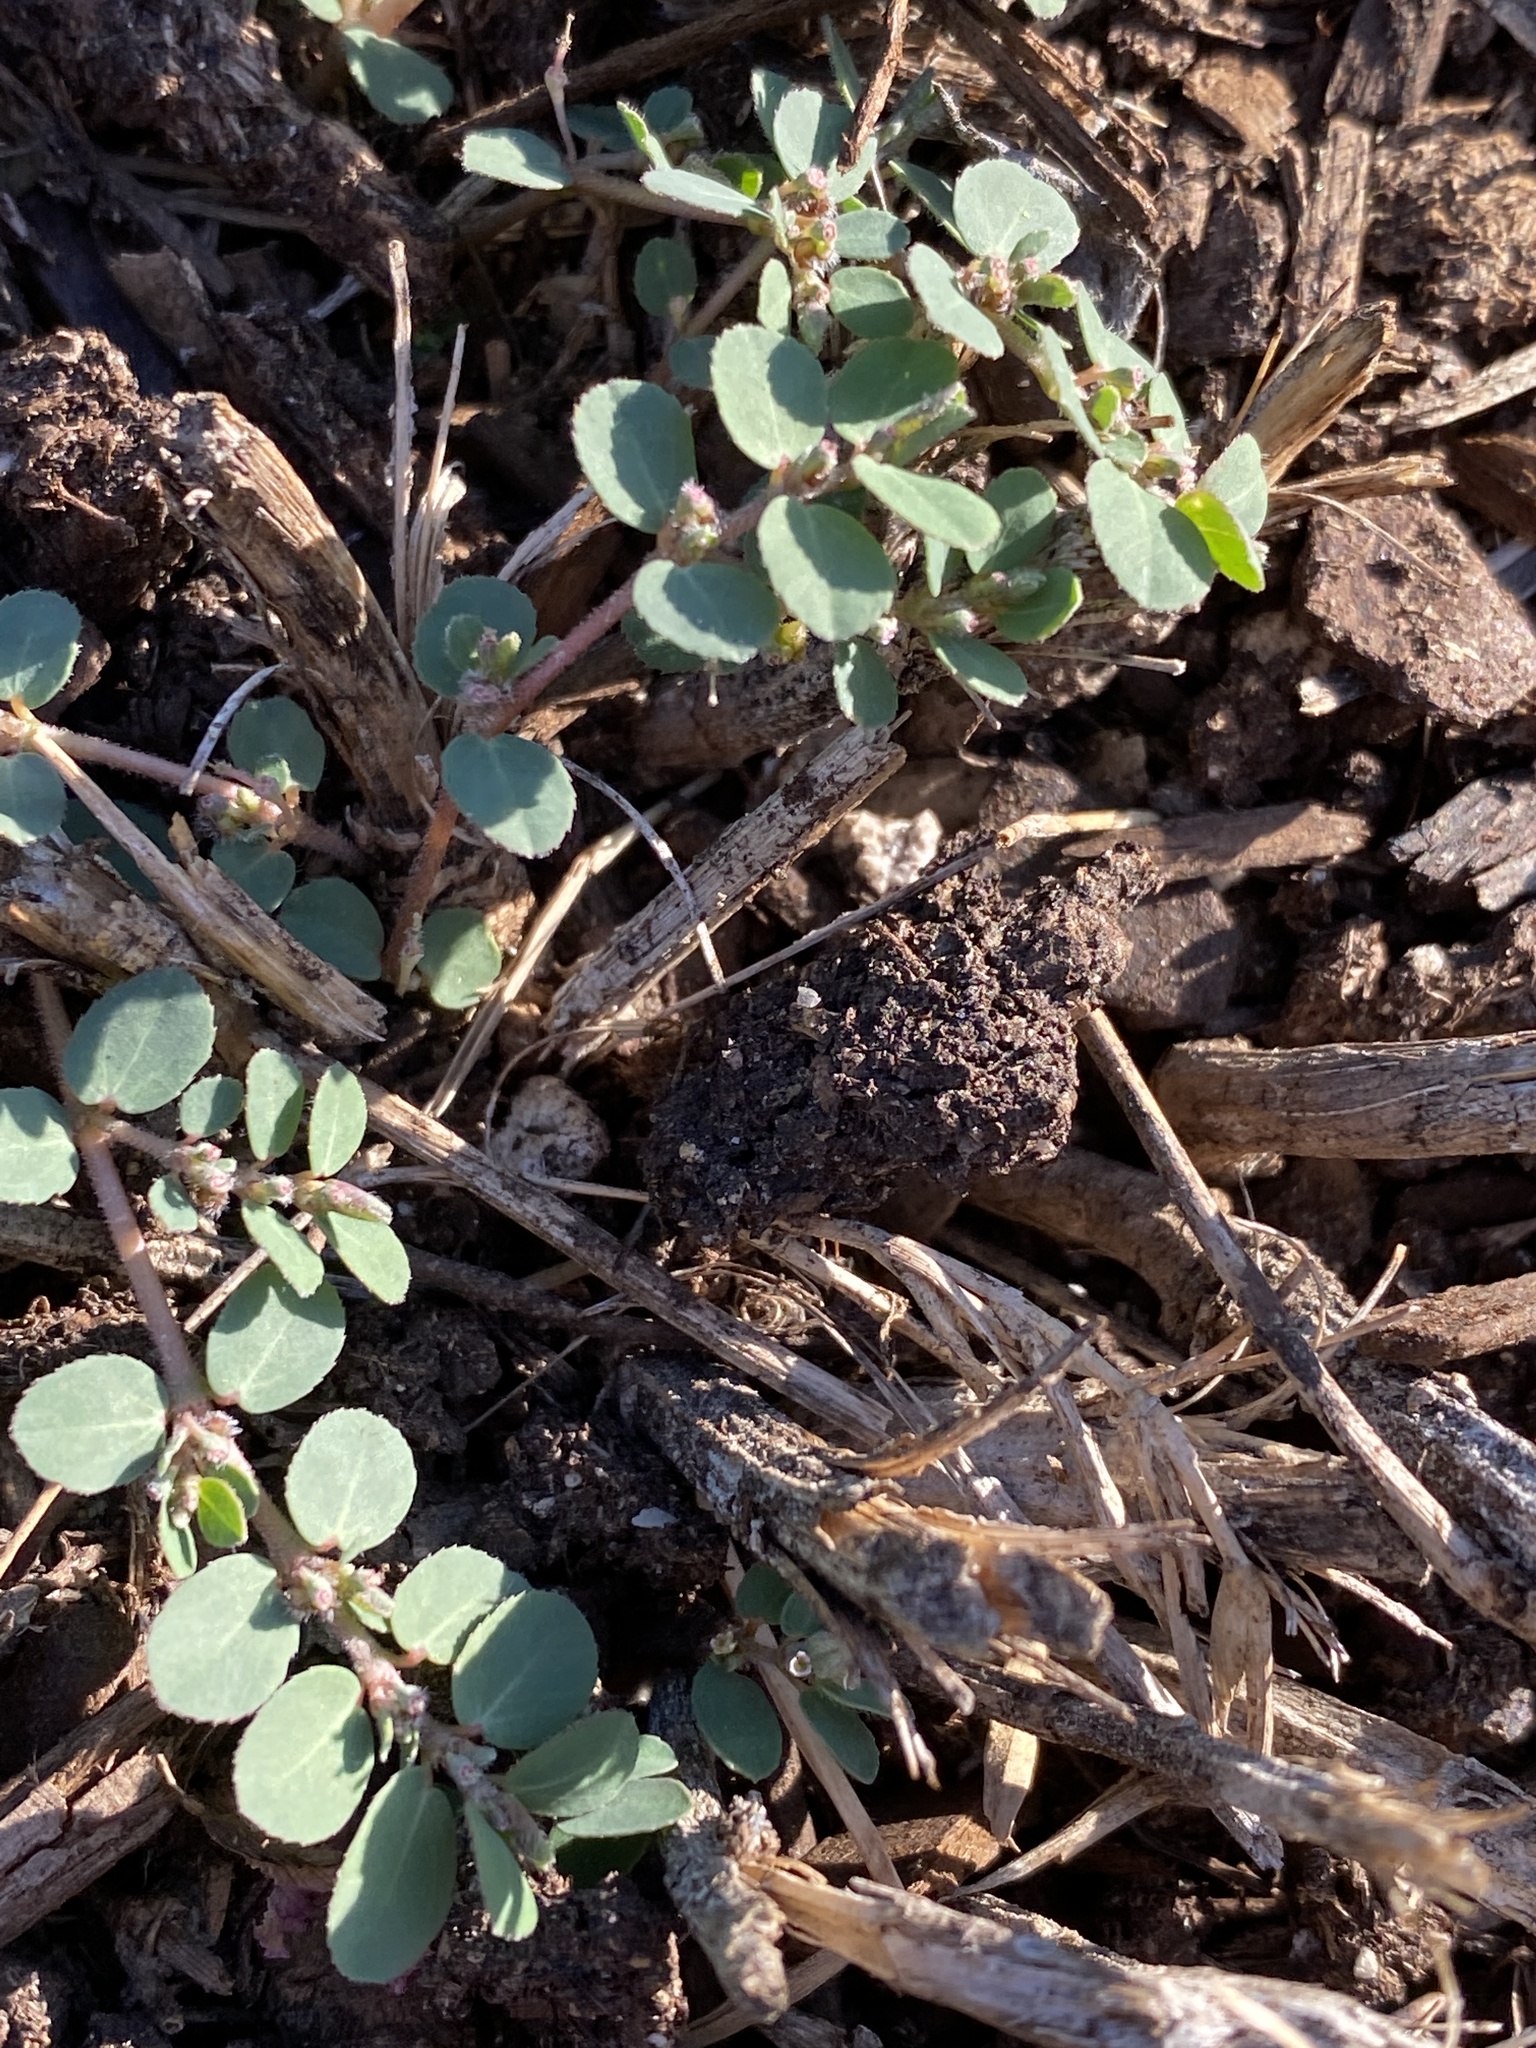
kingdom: Plantae
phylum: Tracheophyta
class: Magnoliopsida
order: Malpighiales
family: Euphorbiaceae
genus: Euphorbia
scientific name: Euphorbia prostrata
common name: Prostrate sandmat
